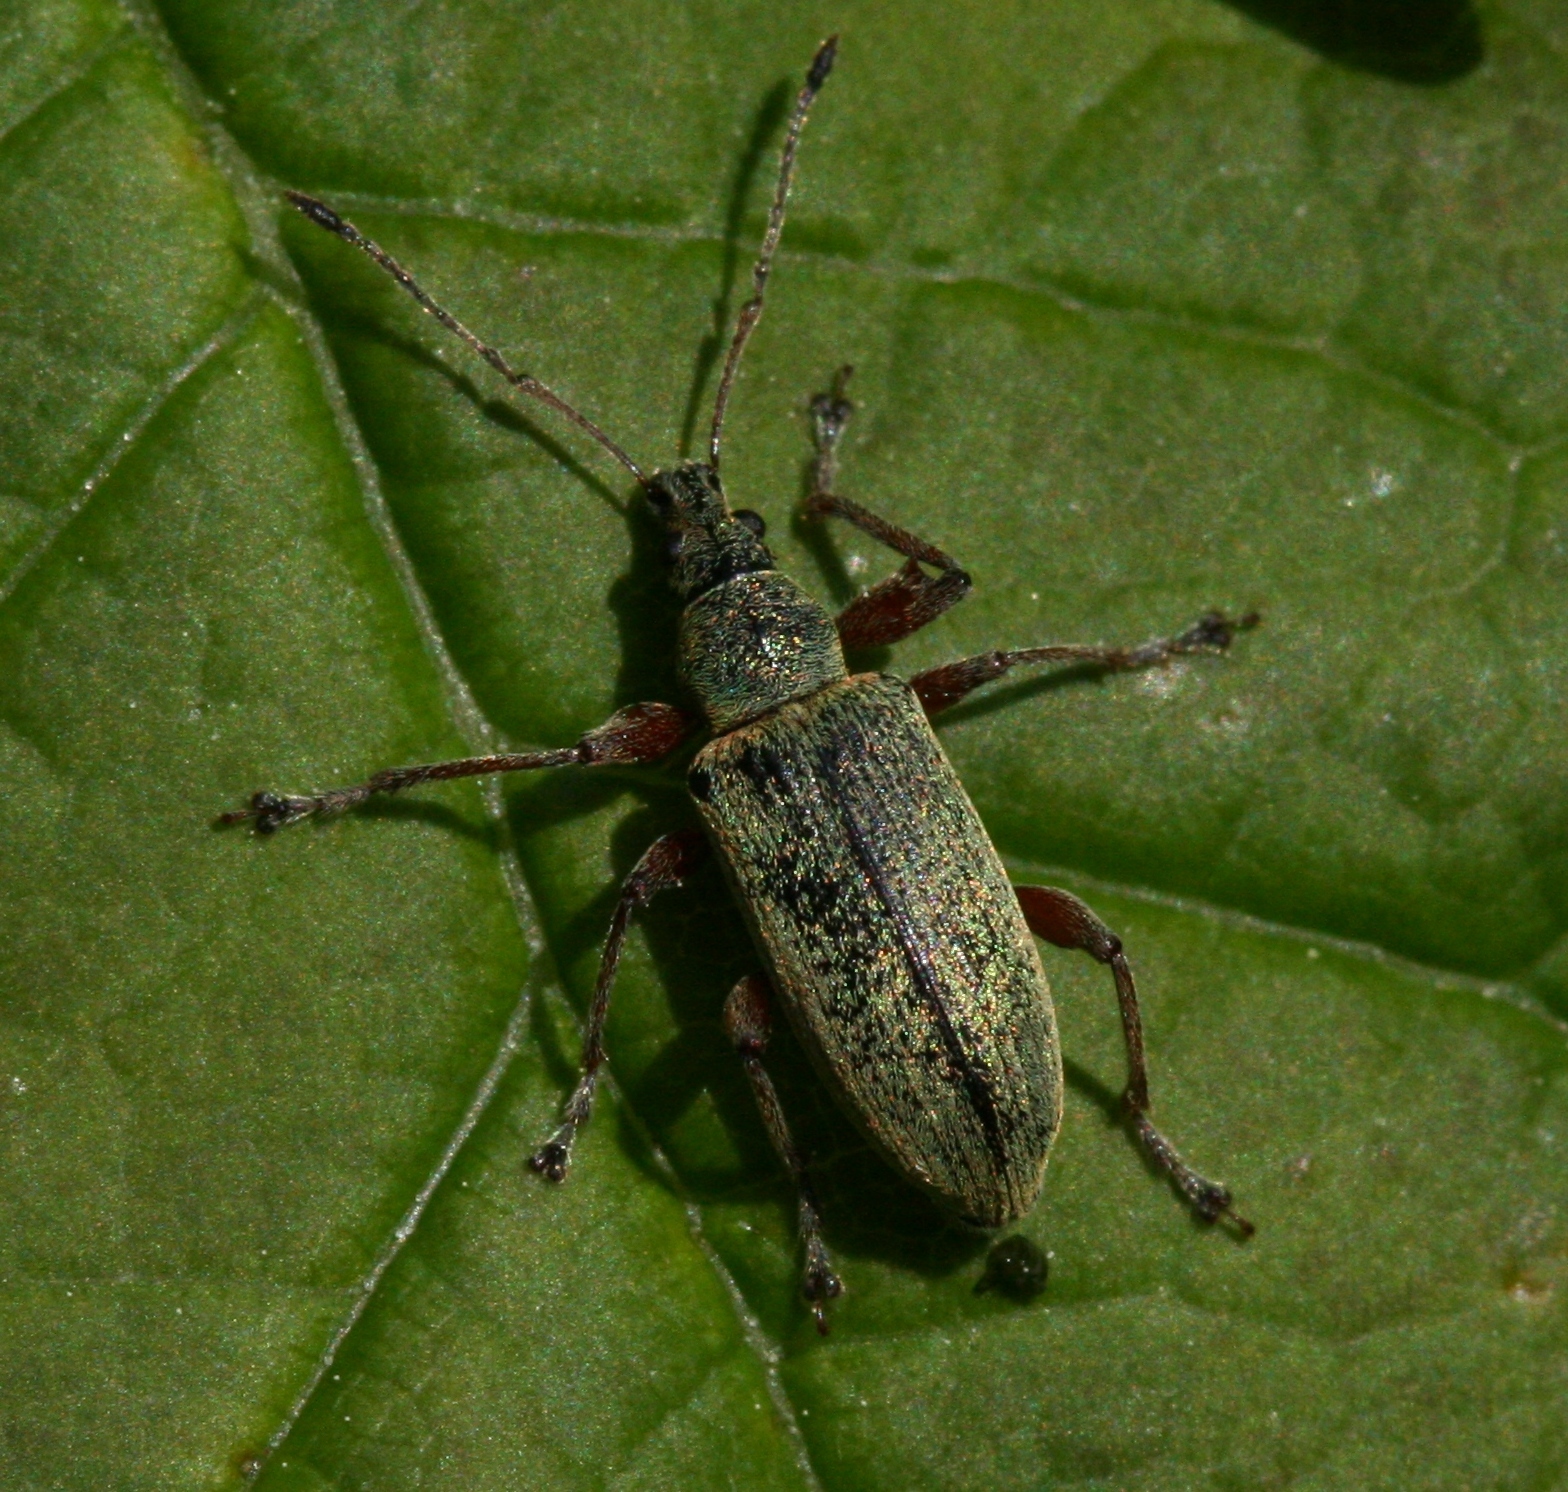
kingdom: Animalia
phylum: Arthropoda
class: Insecta
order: Coleoptera
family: Curculionidae
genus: Phyllobius
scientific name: Phyllobius glaucus
